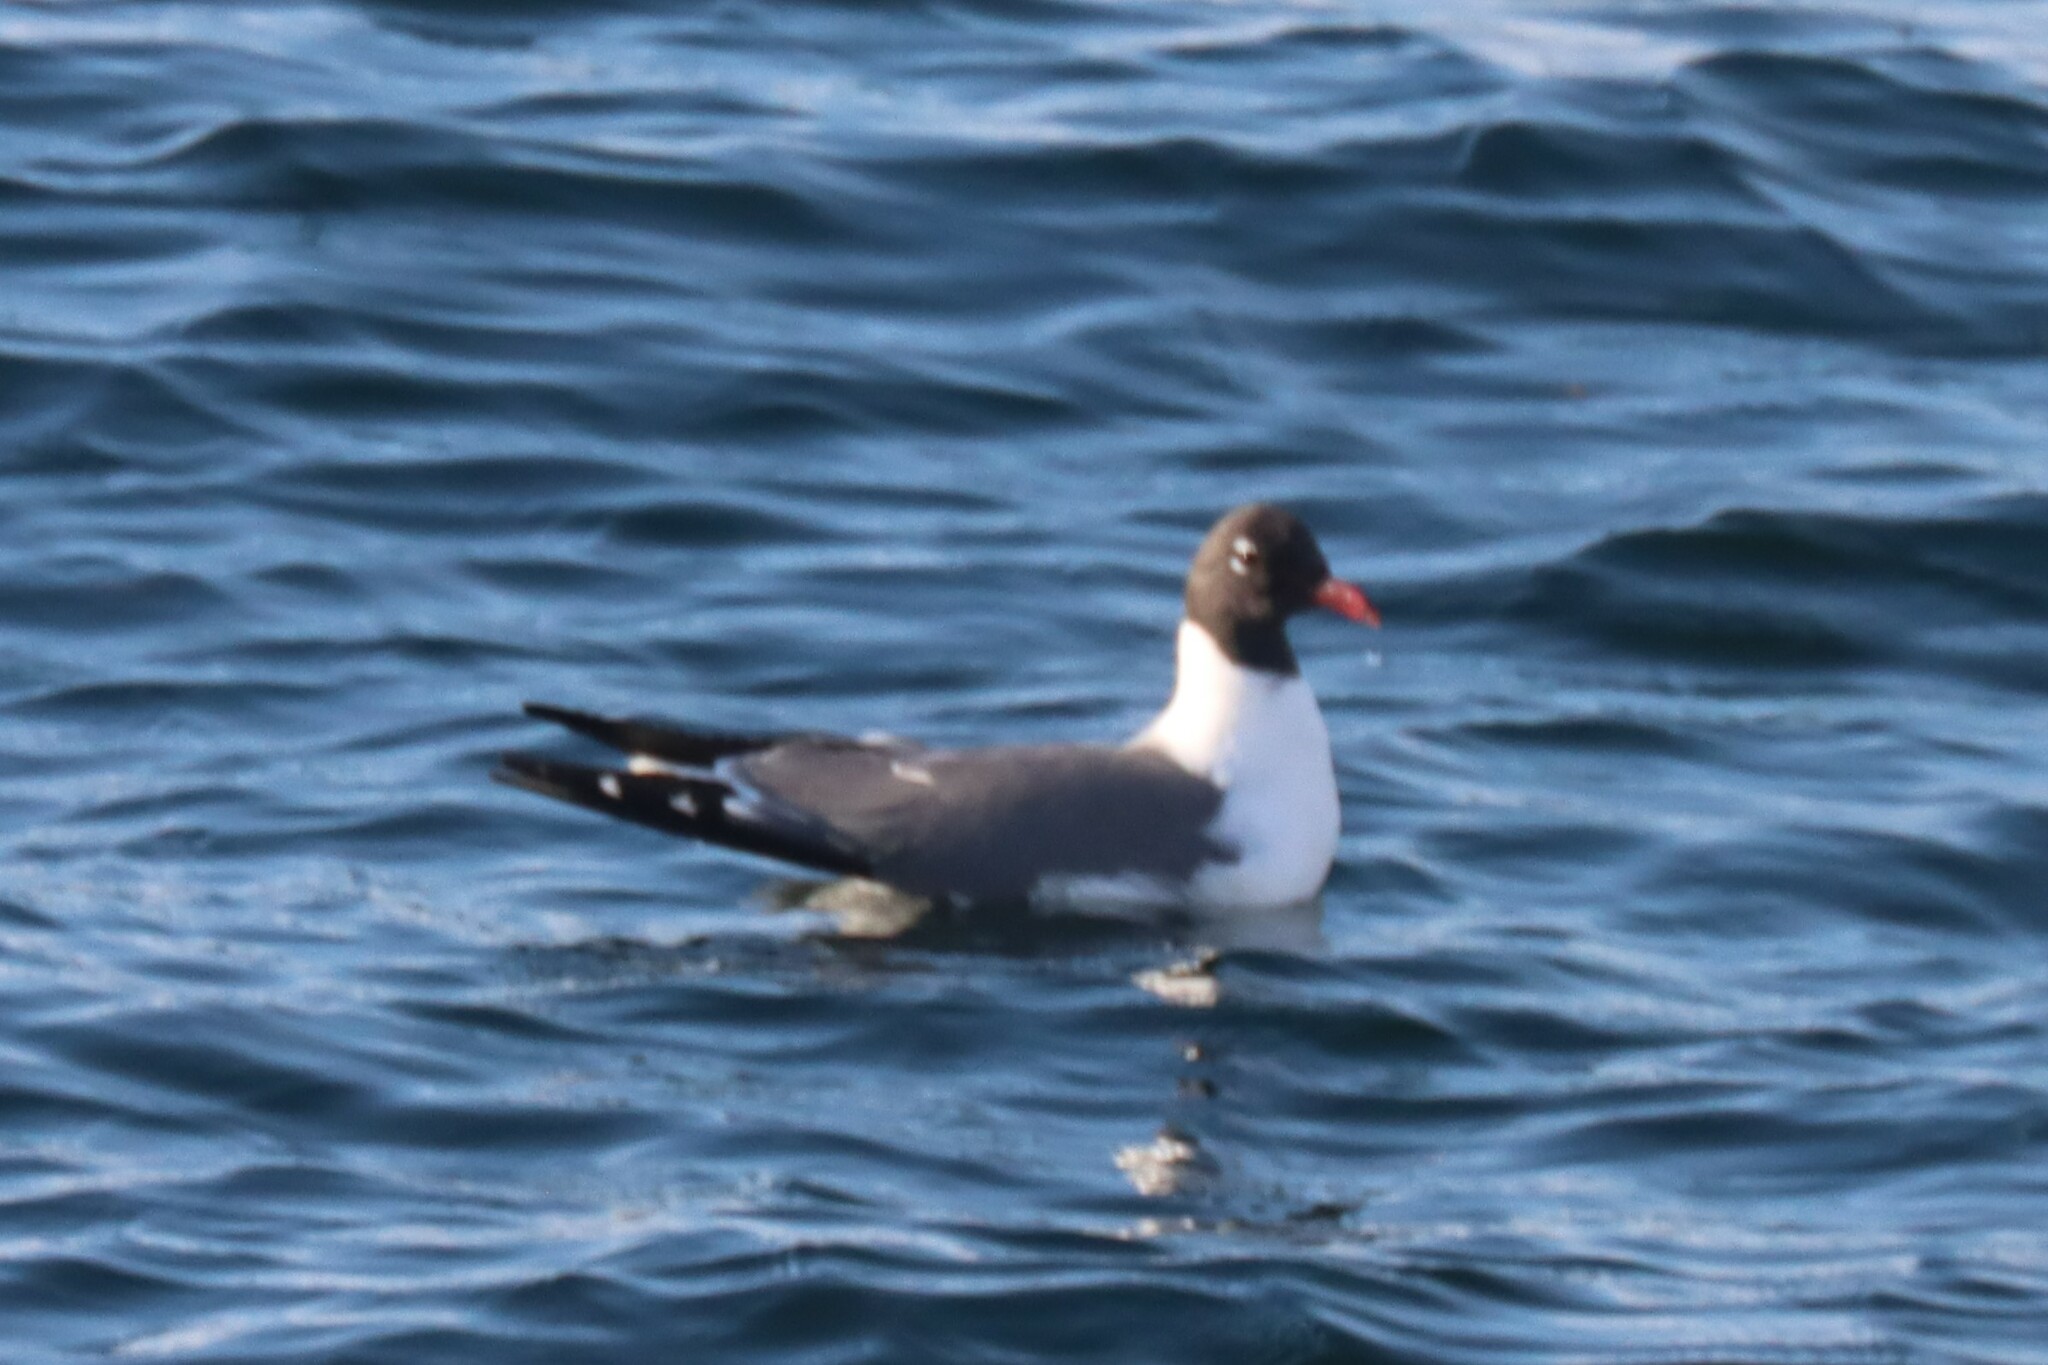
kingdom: Animalia
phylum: Chordata
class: Aves
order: Charadriiformes
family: Laridae
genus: Leucophaeus
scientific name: Leucophaeus atricilla
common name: Laughing gull
